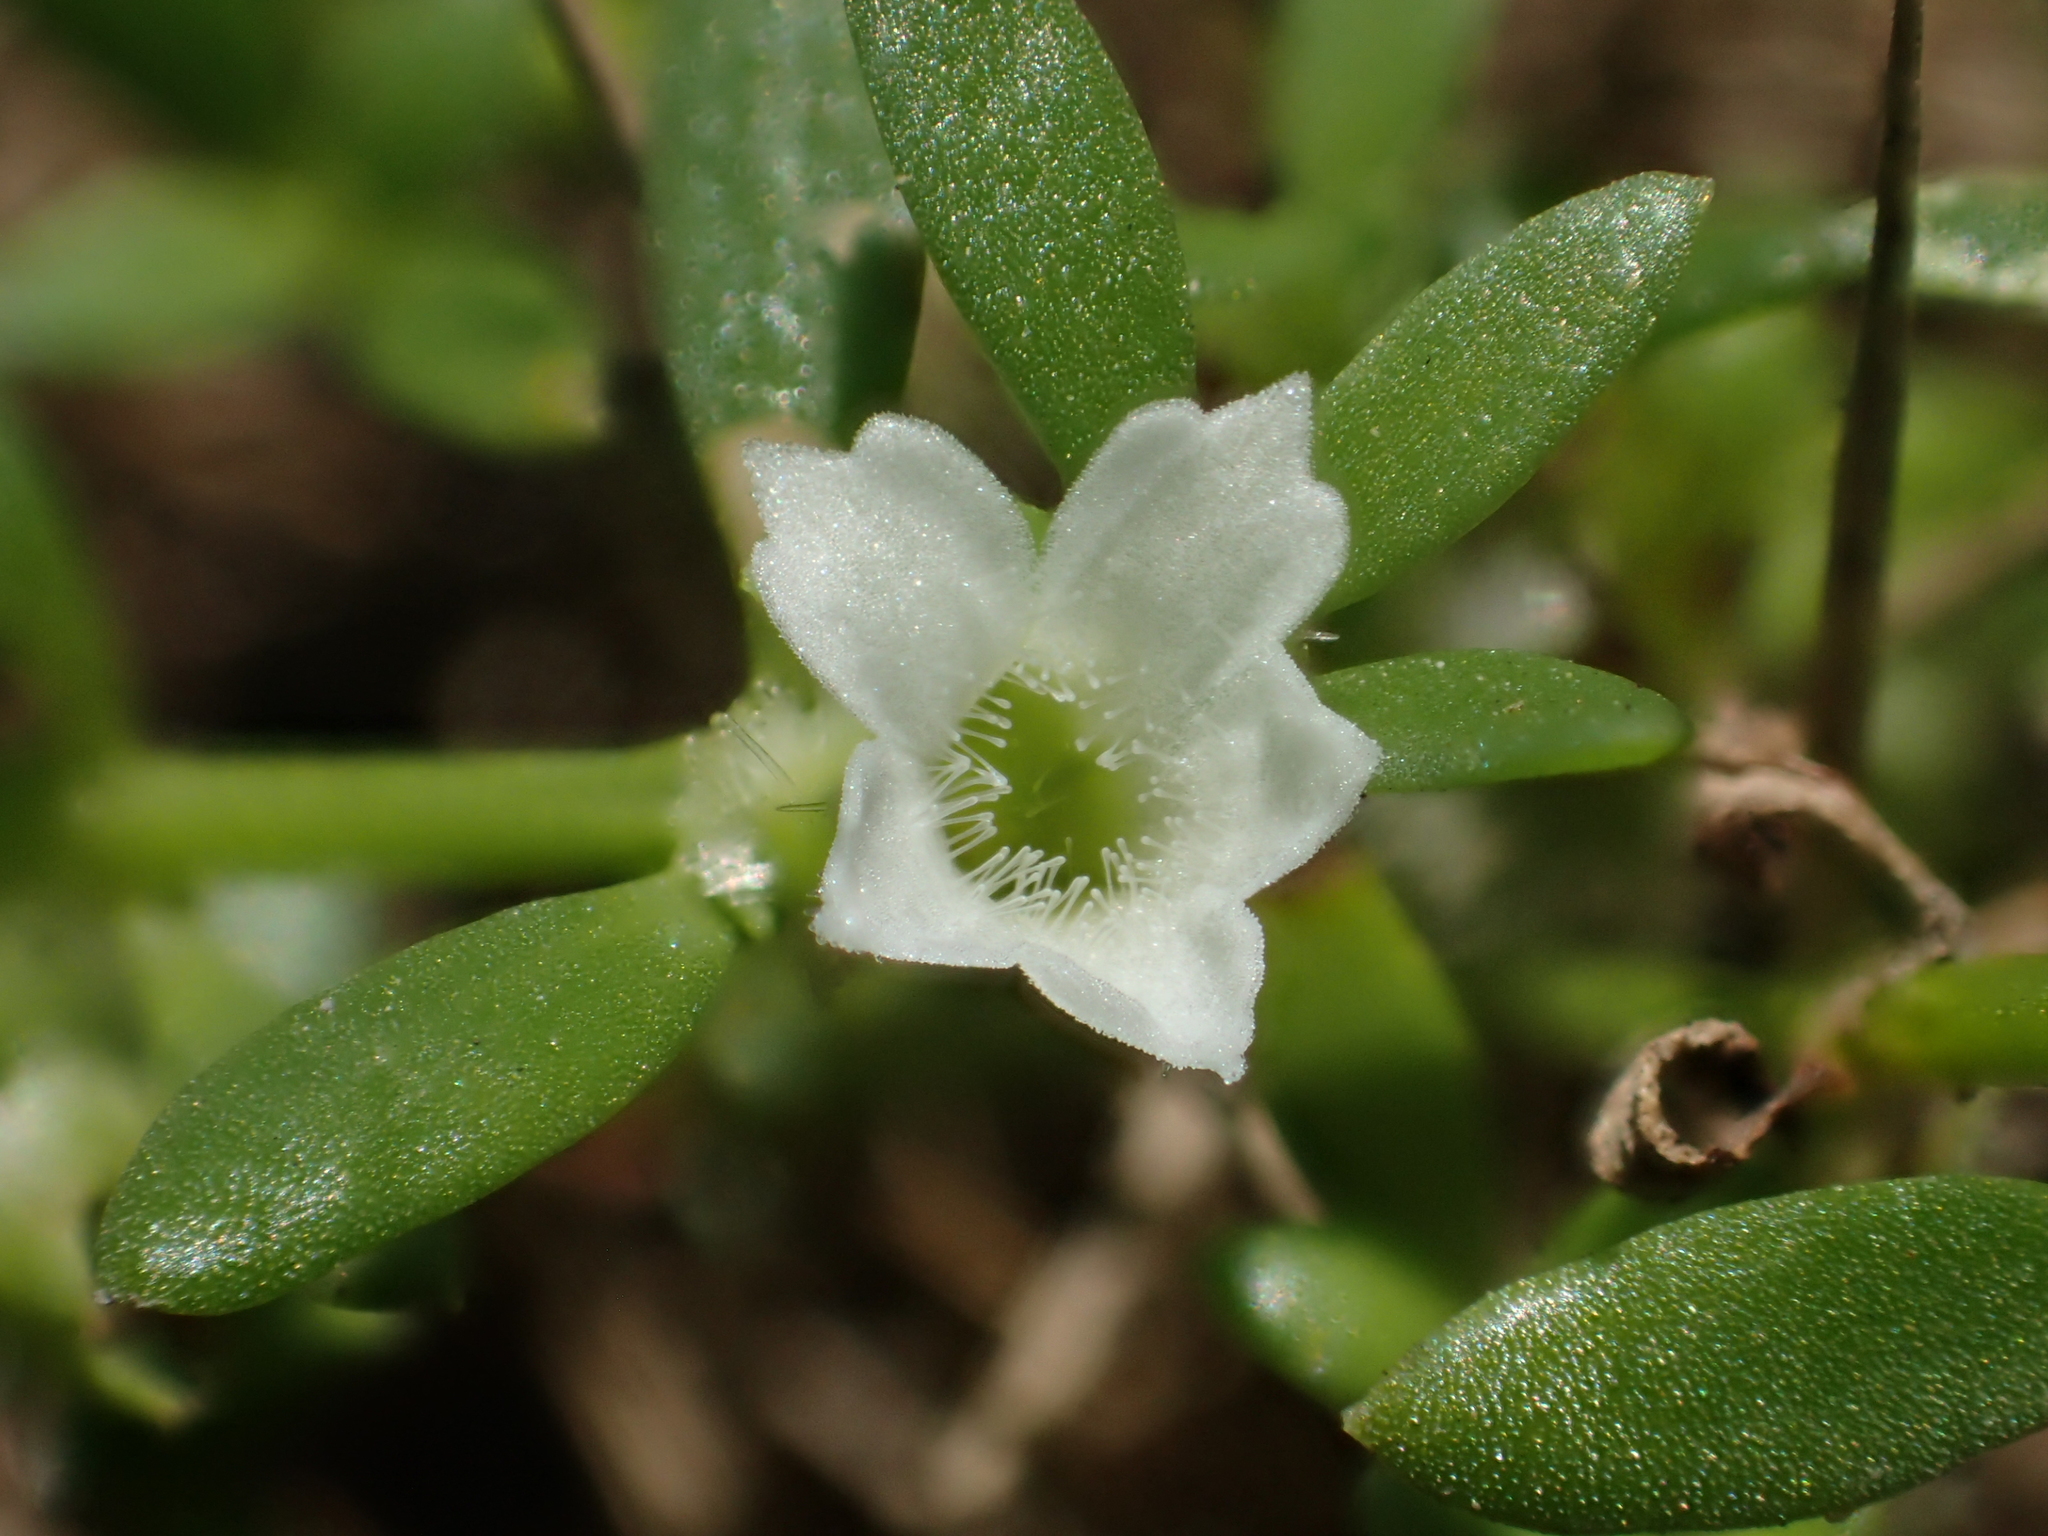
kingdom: Plantae
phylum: Tracheophyta
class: Magnoliopsida
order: Gentianales
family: Rubiaceae
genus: Dentella
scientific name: Dentella repens
